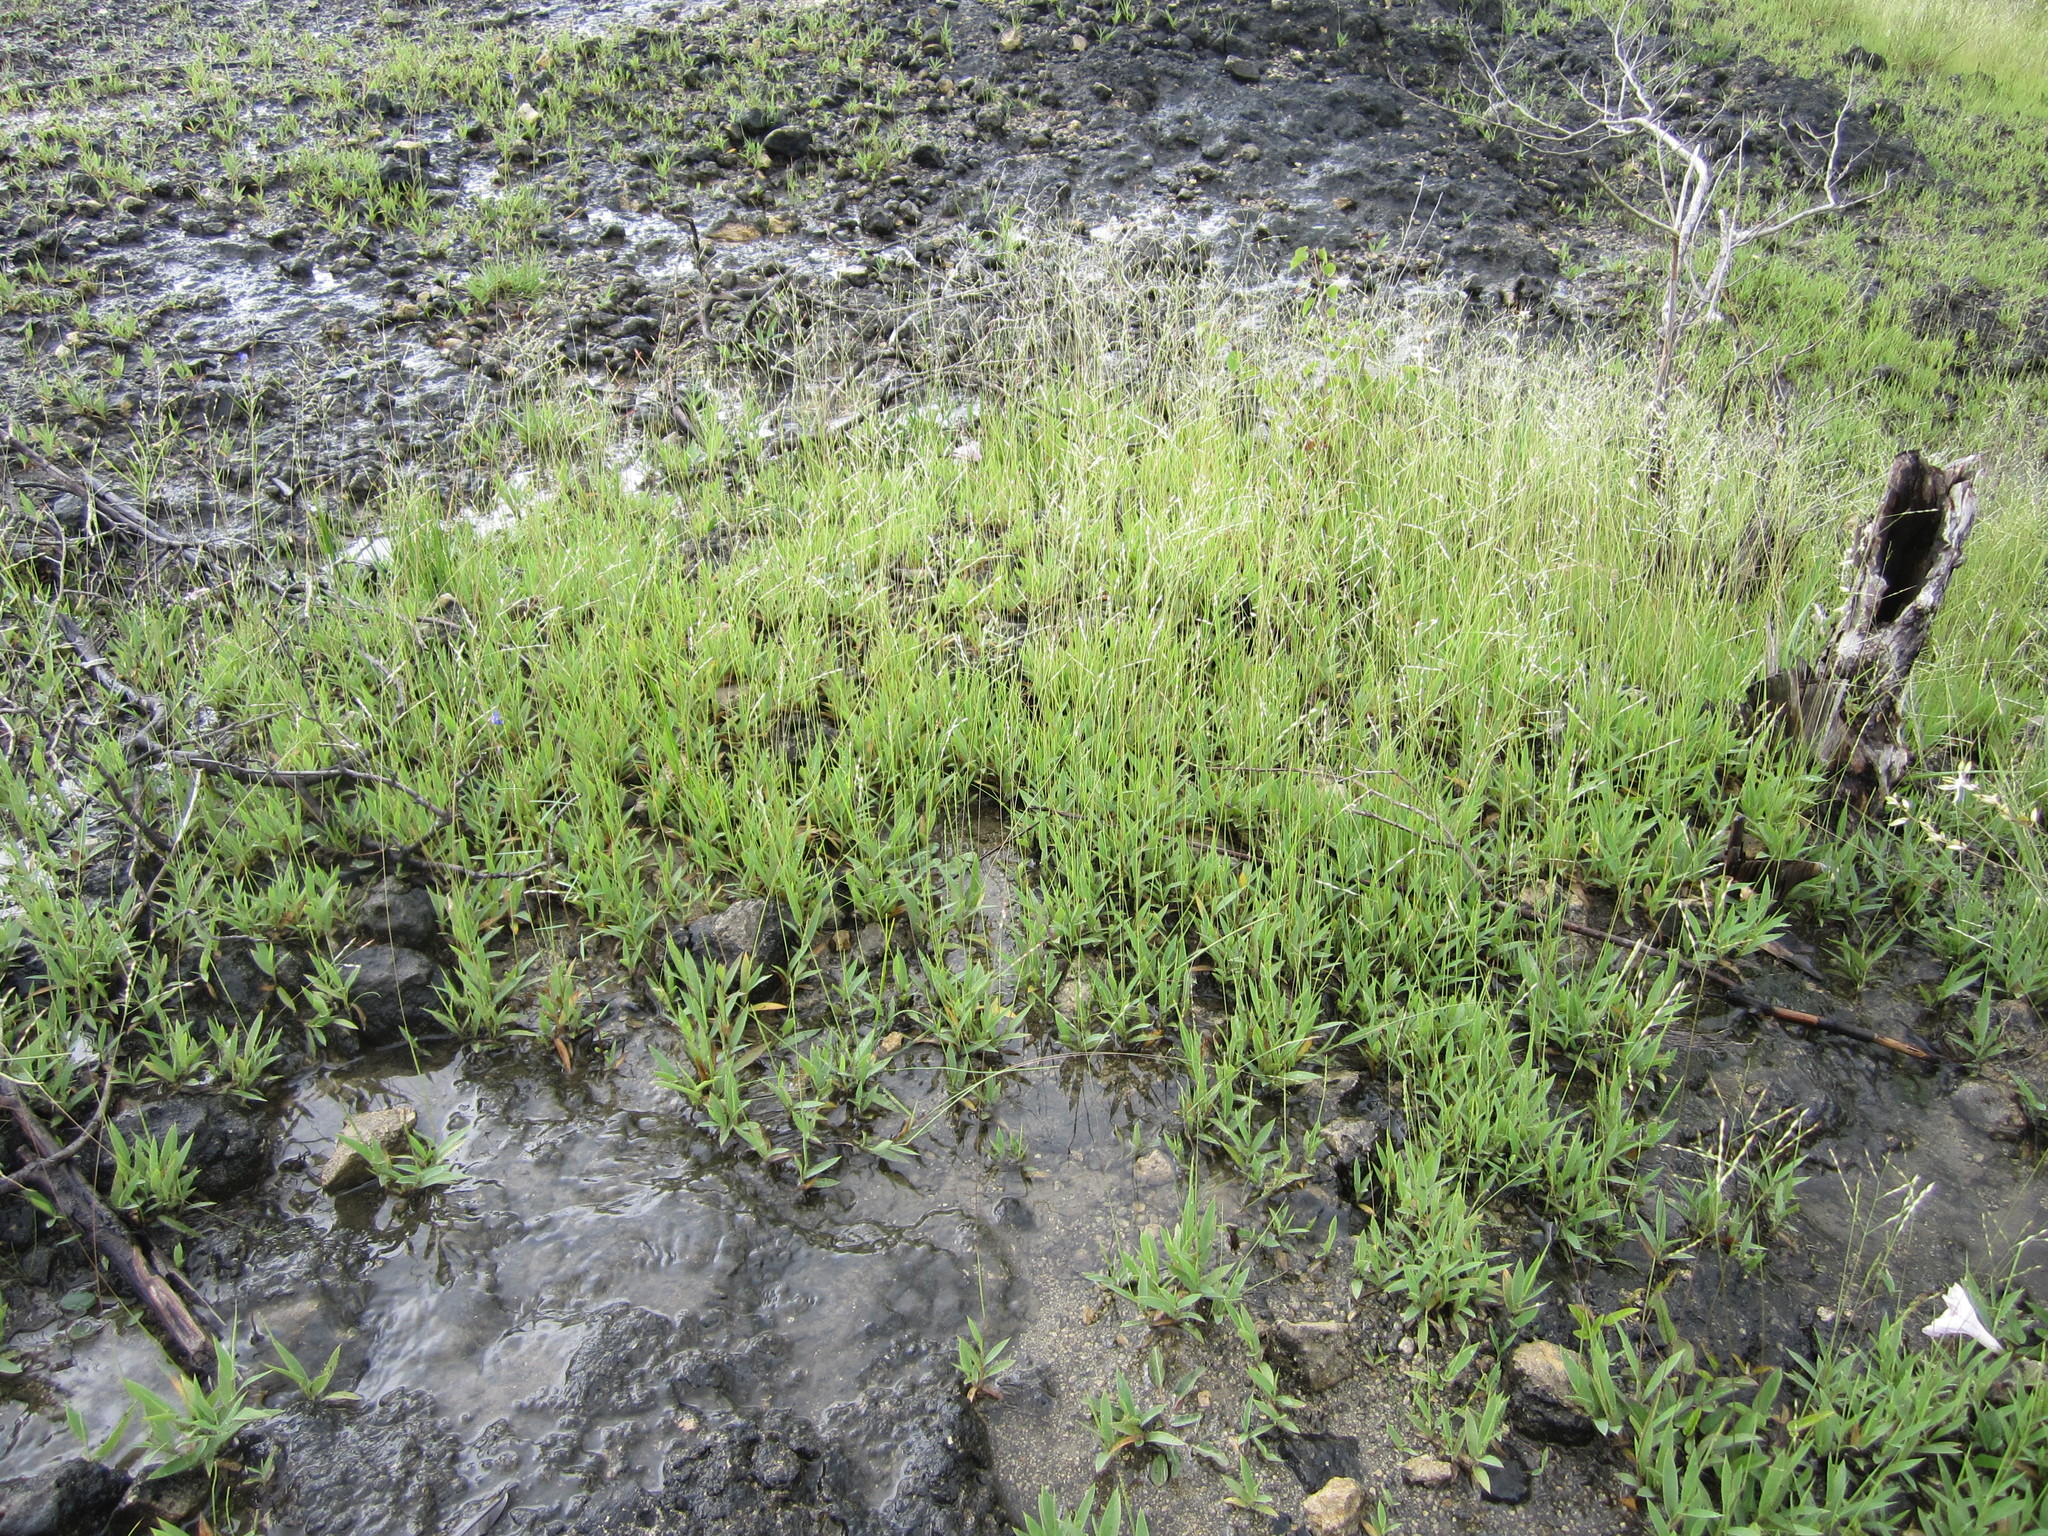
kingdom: Plantae
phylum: Tracheophyta
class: Liliopsida
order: Poales
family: Poaceae
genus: Yvesia
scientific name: Yvesia madagascariensis
